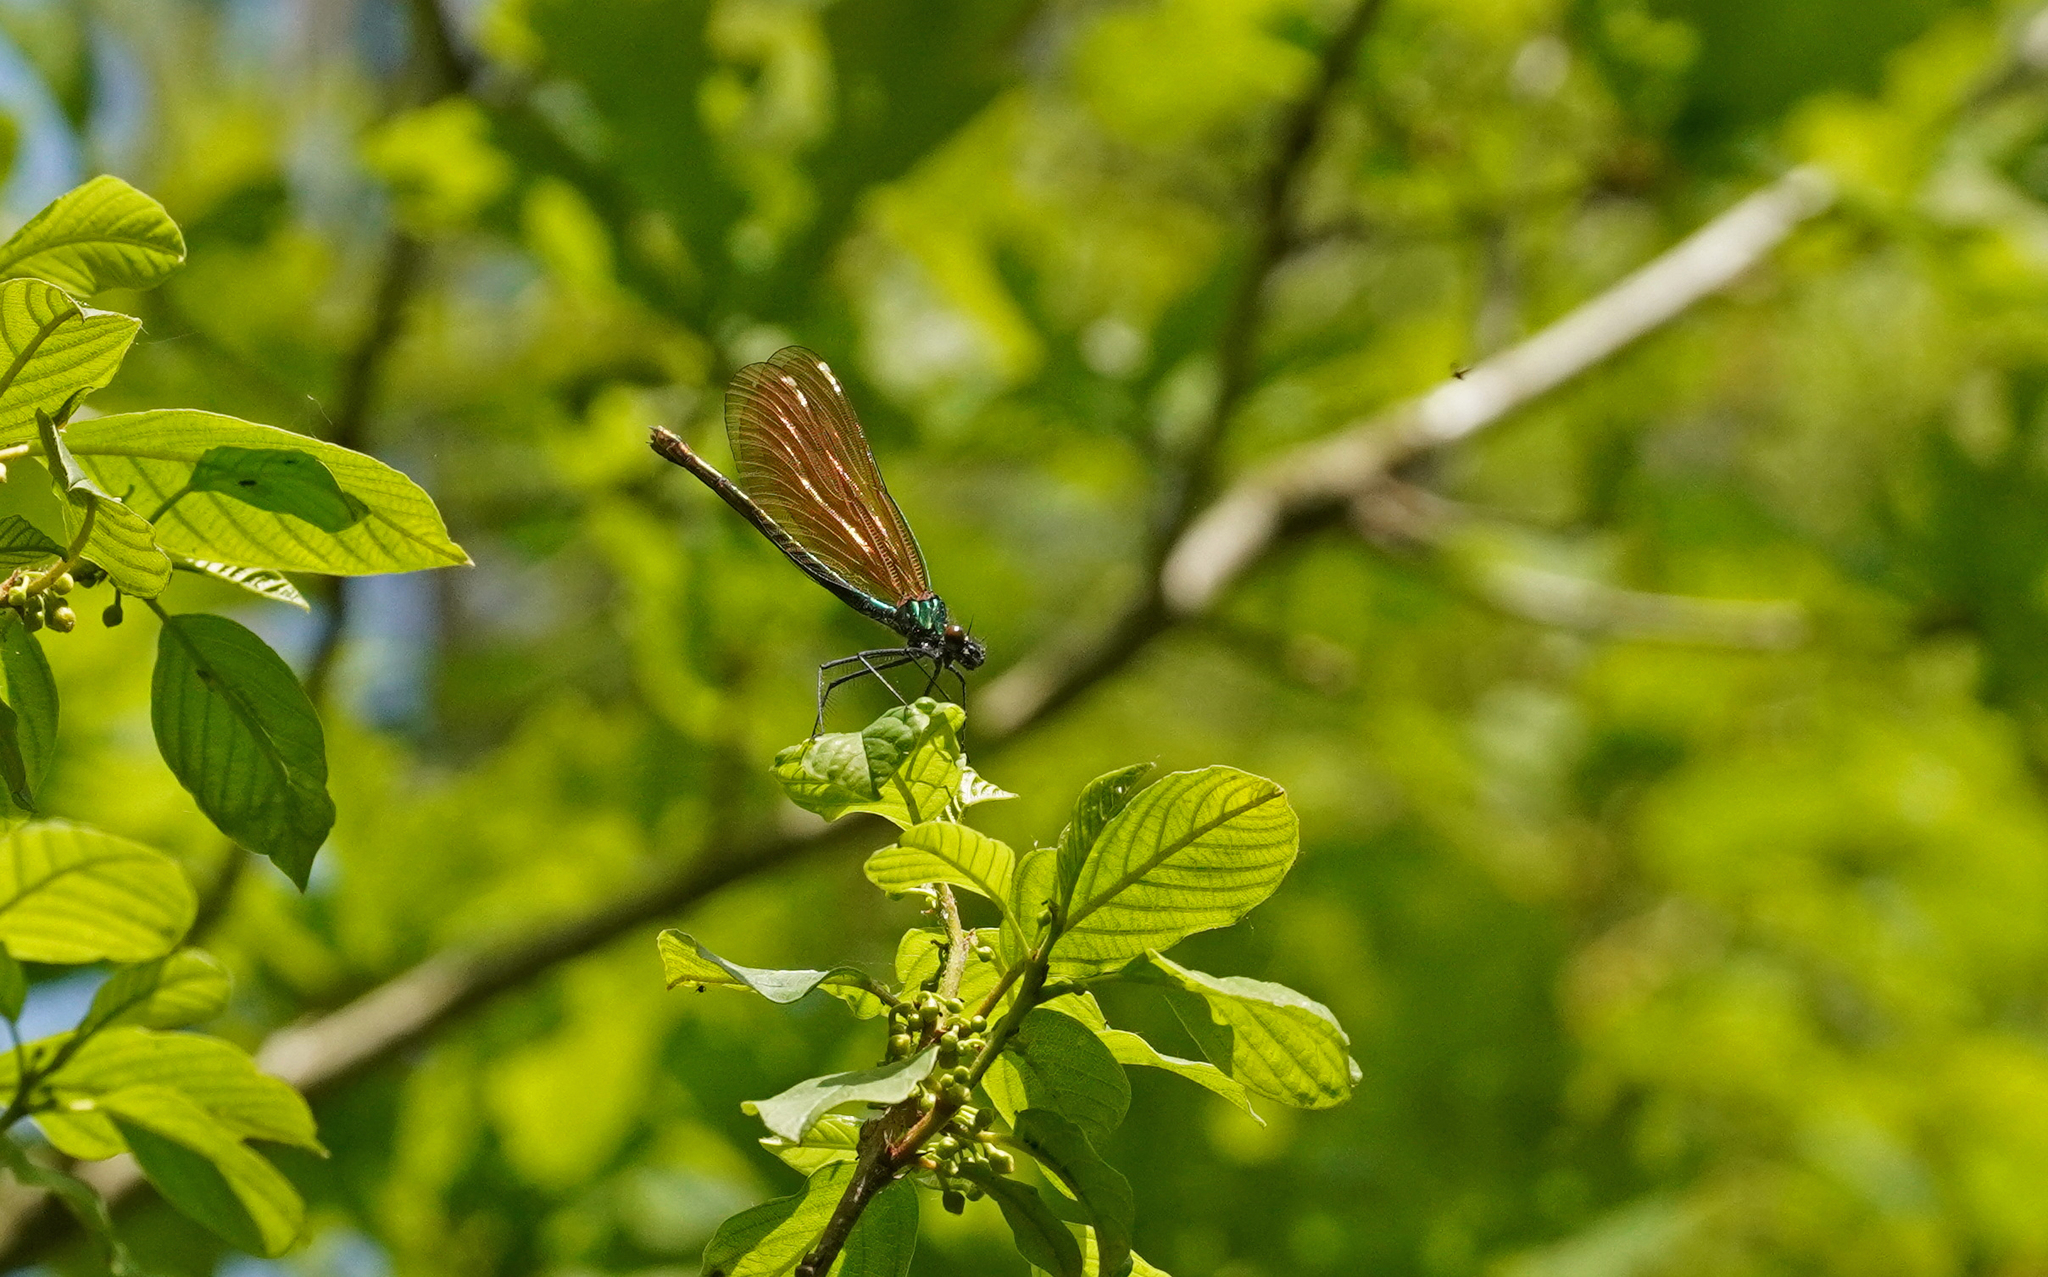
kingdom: Animalia
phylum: Arthropoda
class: Insecta
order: Odonata
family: Calopterygidae
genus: Calopteryx
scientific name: Calopteryx virgo
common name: Beautiful demoiselle
